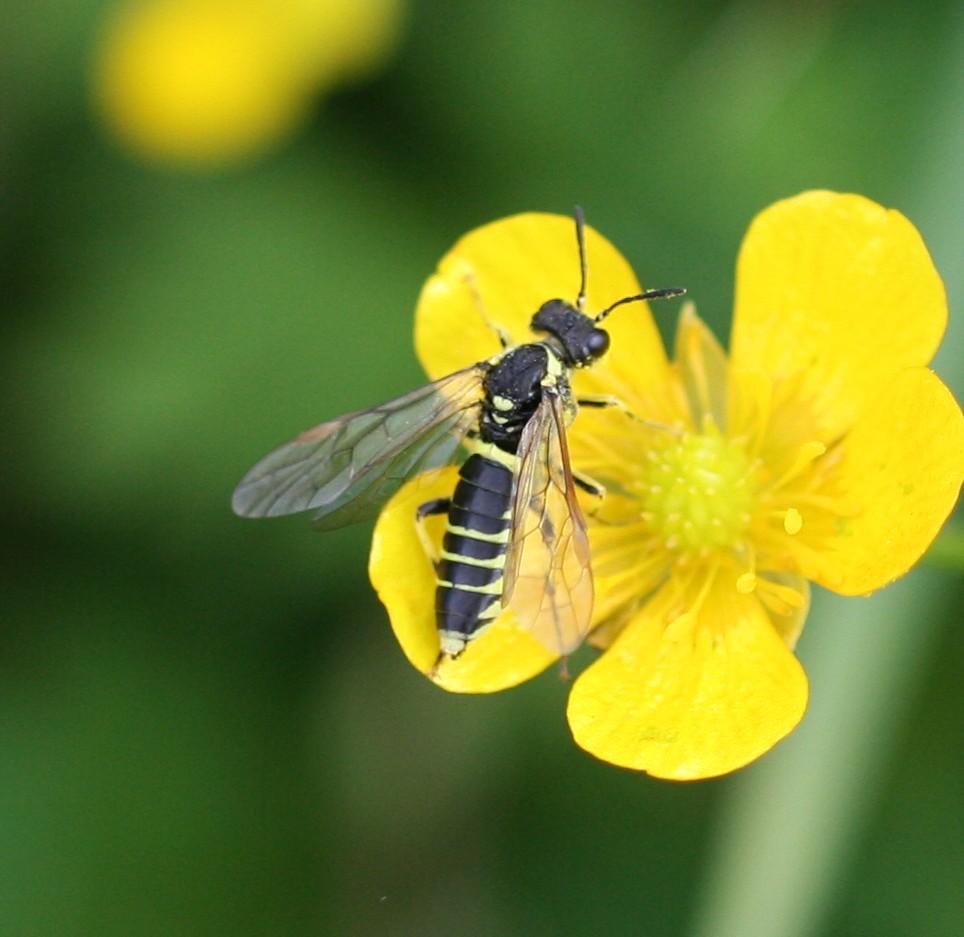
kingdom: Animalia
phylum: Arthropoda
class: Insecta
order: Hymenoptera
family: Tenthredinidae
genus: Tenthredo
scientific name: Tenthredo notha
